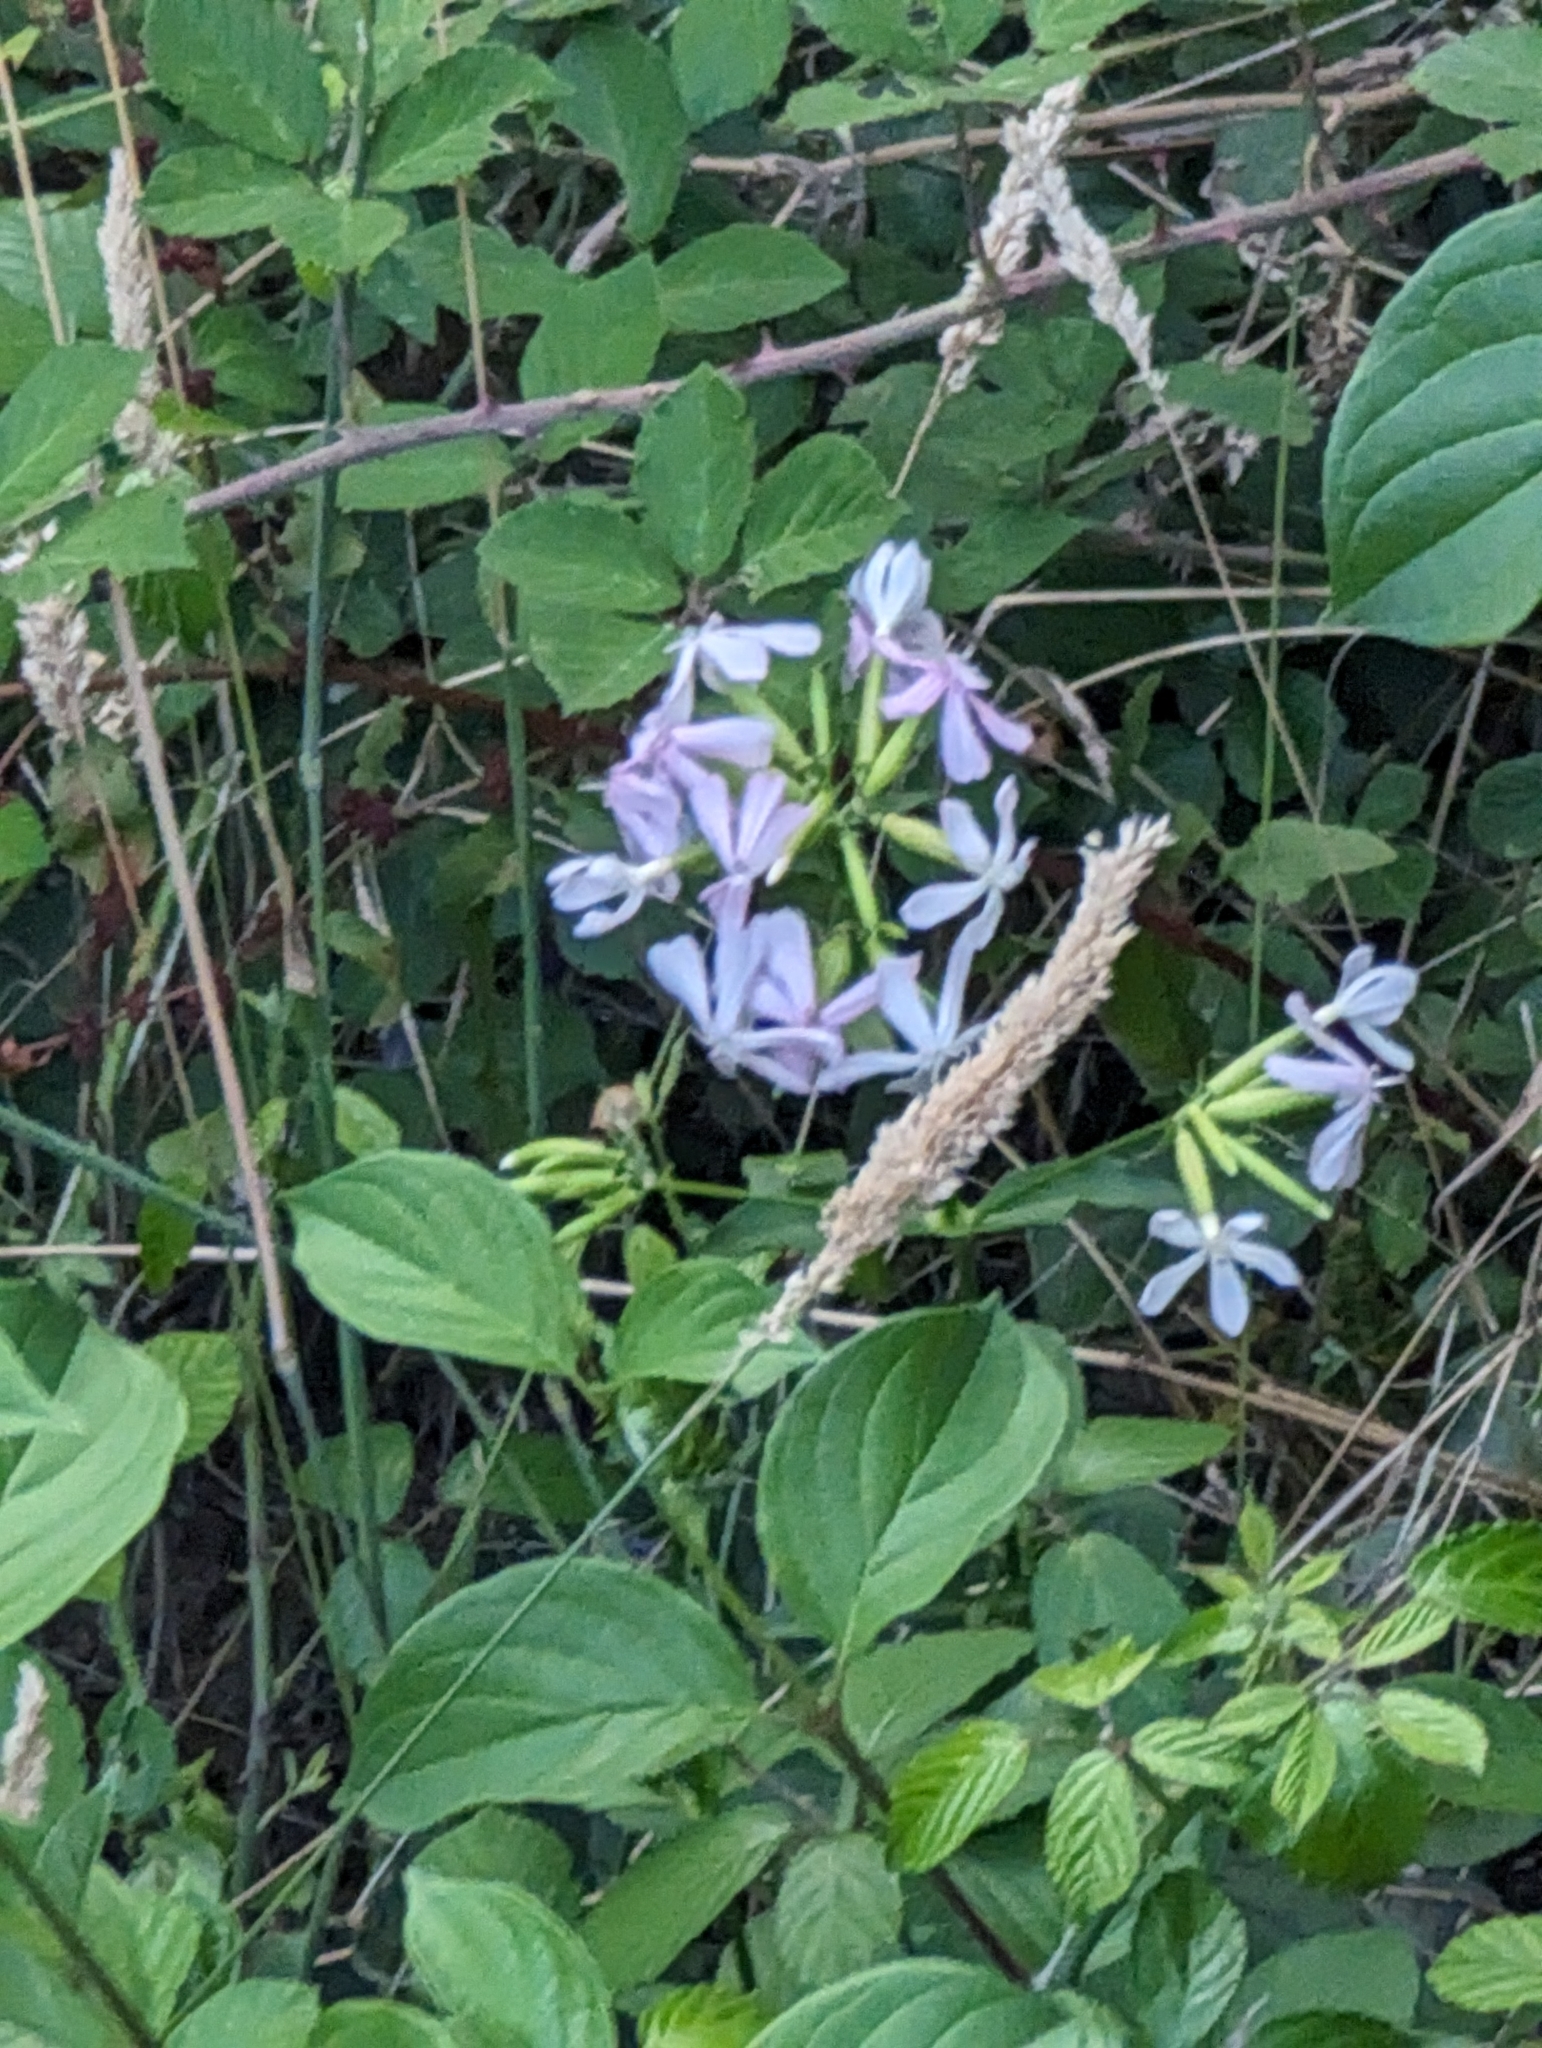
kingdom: Plantae
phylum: Tracheophyta
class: Magnoliopsida
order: Caryophyllales
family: Caryophyllaceae
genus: Saponaria
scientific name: Saponaria officinalis
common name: Soapwort
